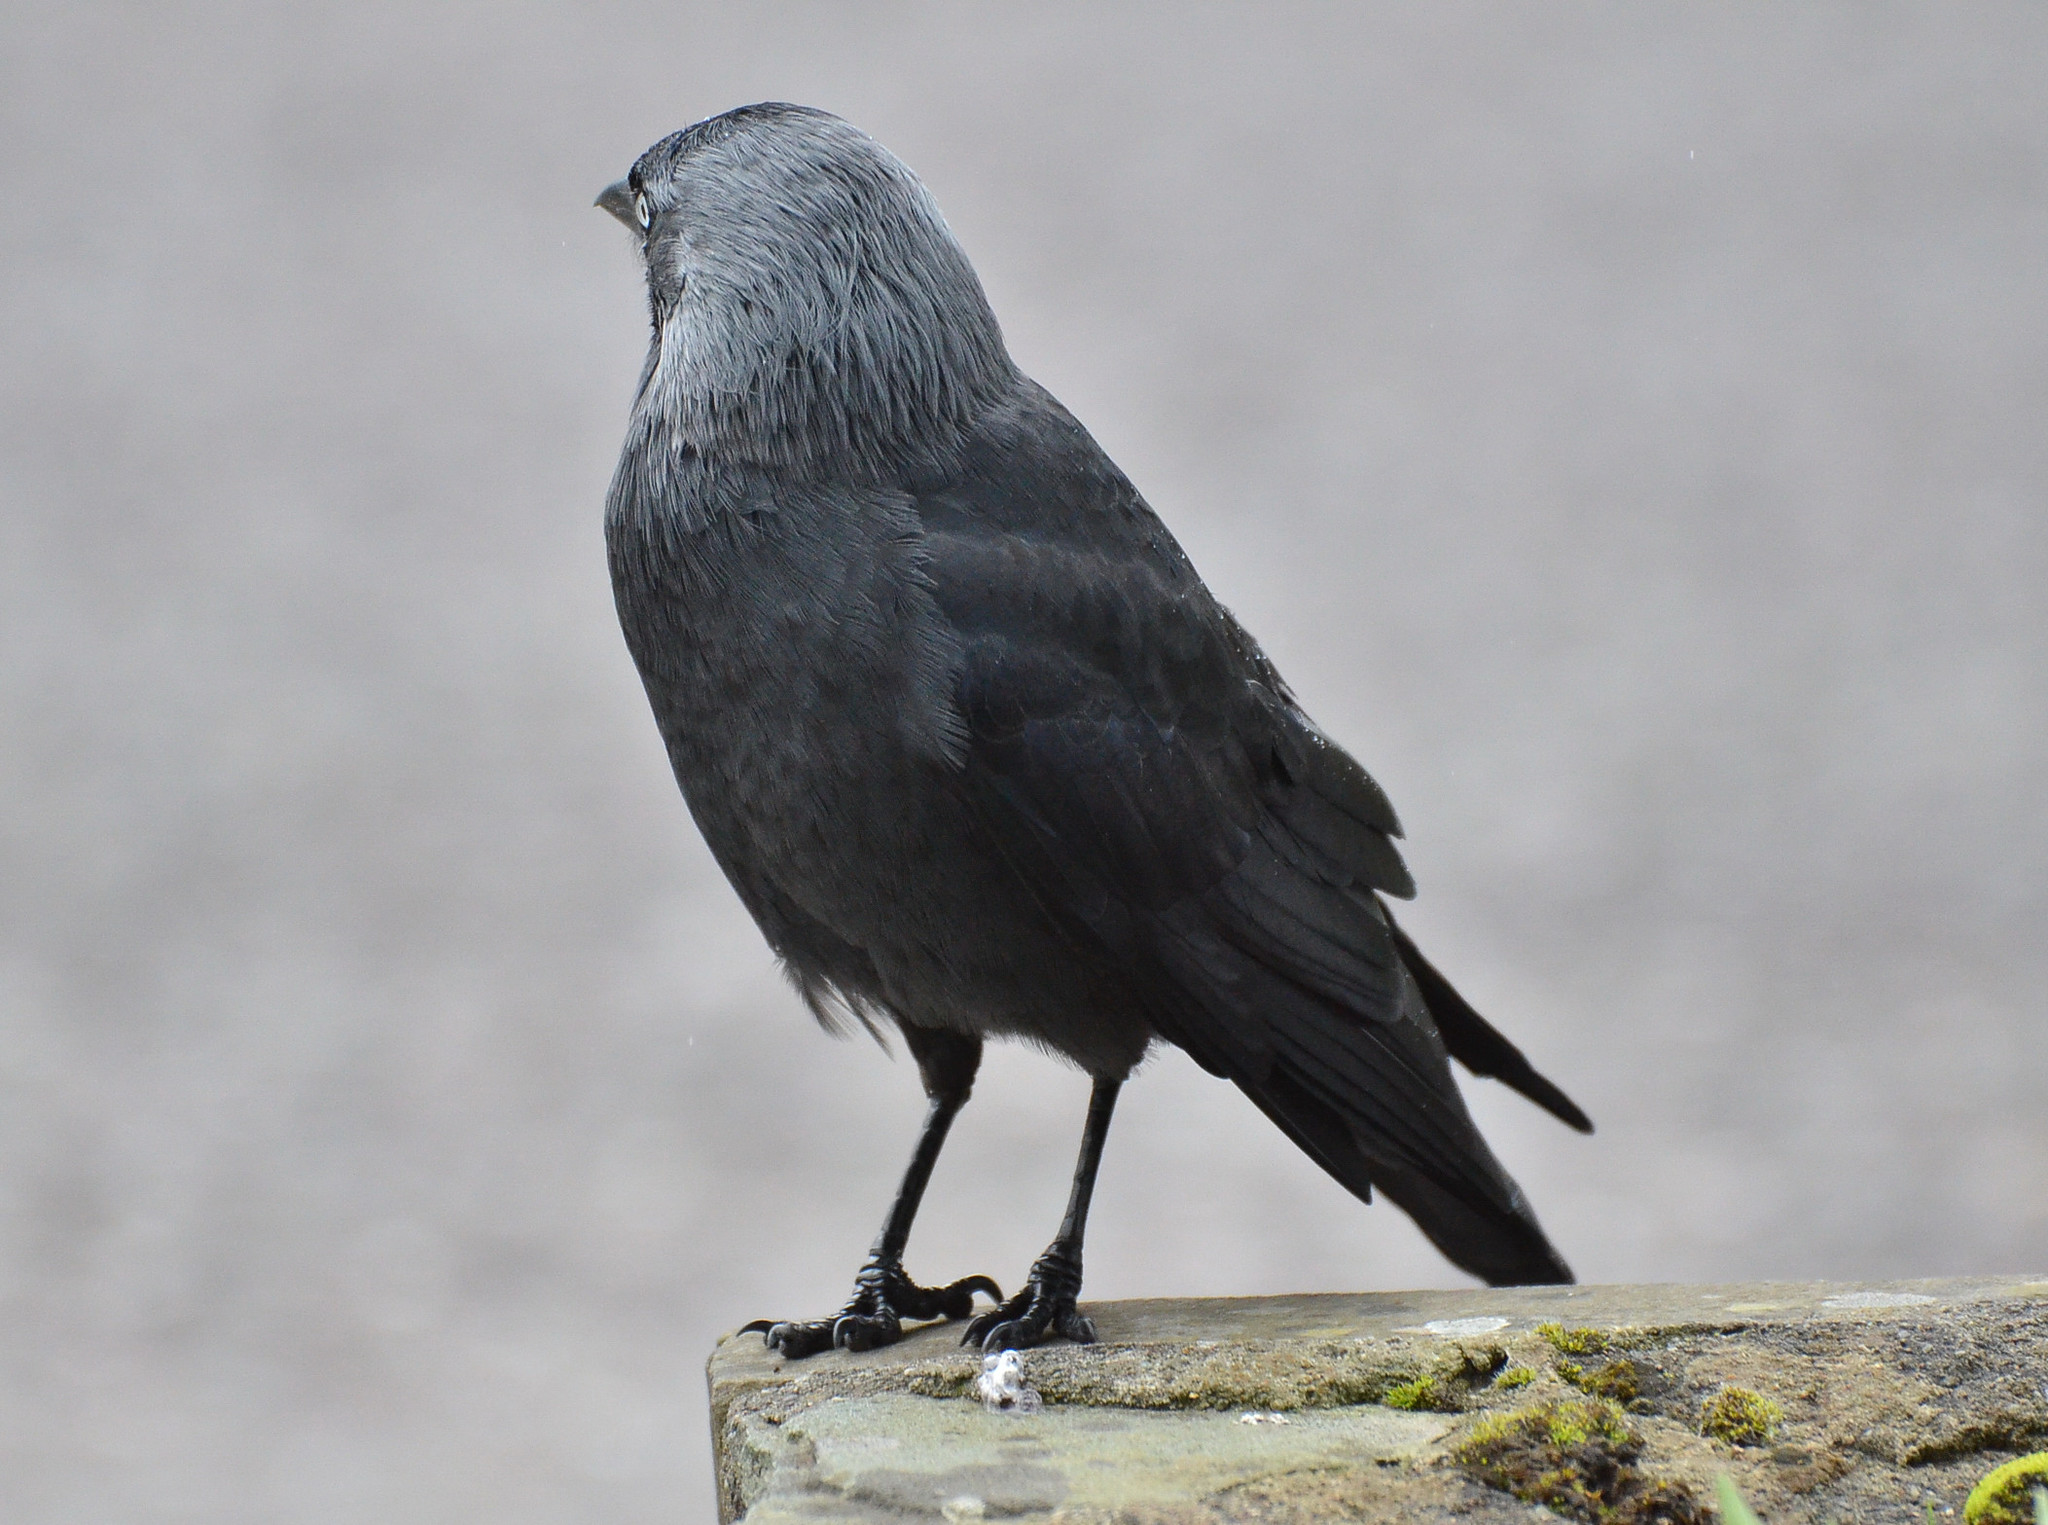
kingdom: Animalia
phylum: Chordata
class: Aves
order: Passeriformes
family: Corvidae
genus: Coloeus
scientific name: Coloeus monedula
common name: Western jackdaw
